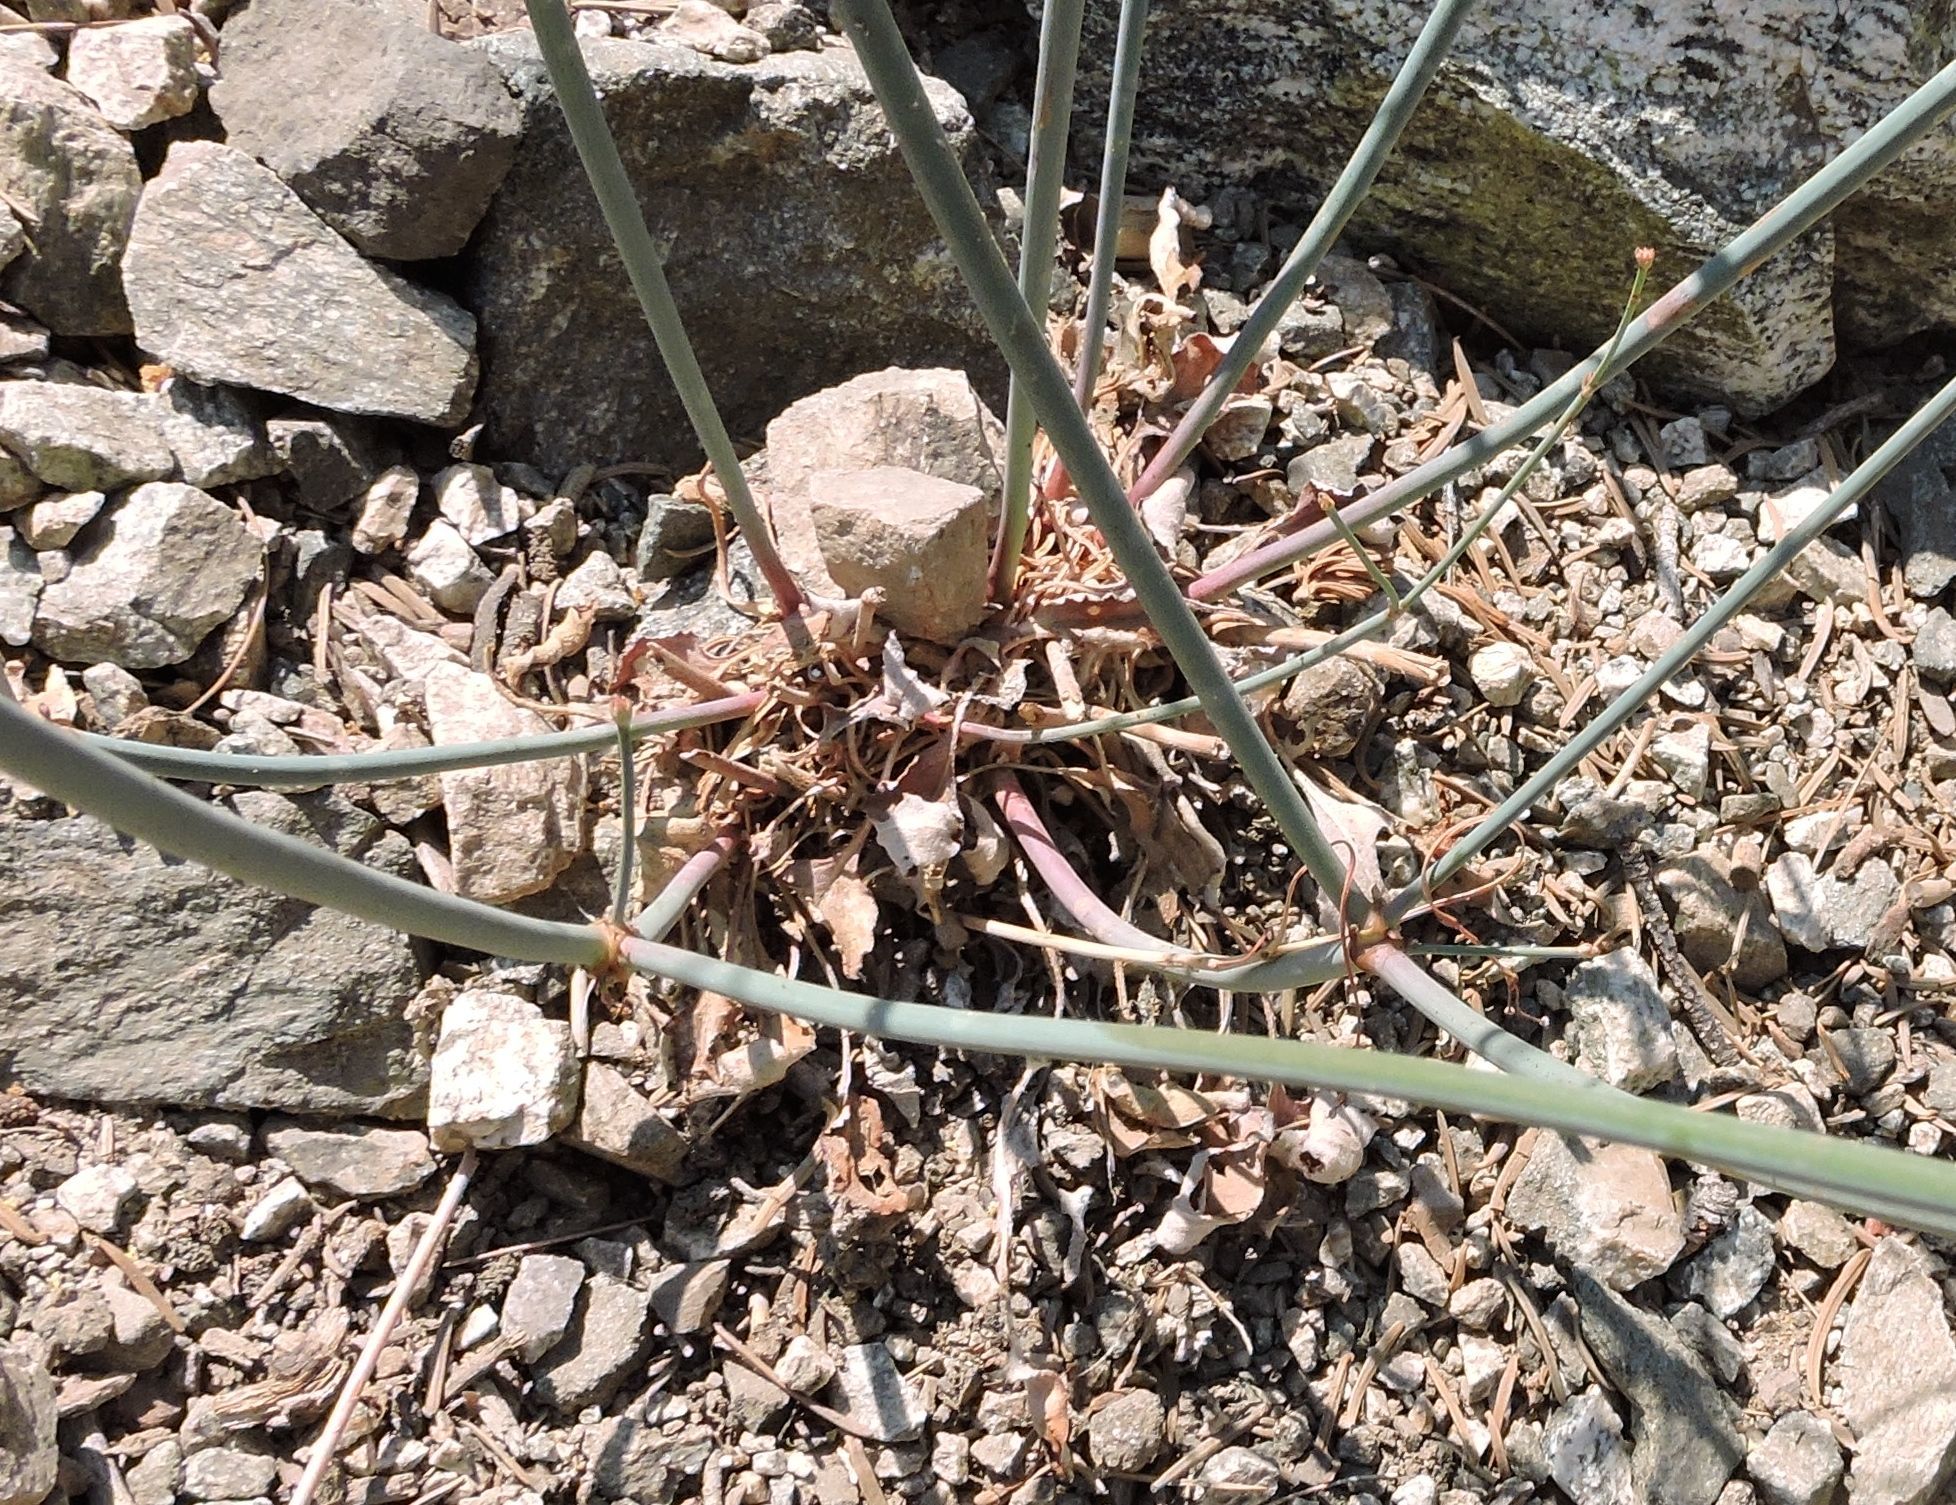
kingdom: Plantae
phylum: Tracheophyta
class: Magnoliopsida
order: Caryophyllales
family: Polygonaceae
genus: Eriogonum
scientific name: Eriogonum nudum
